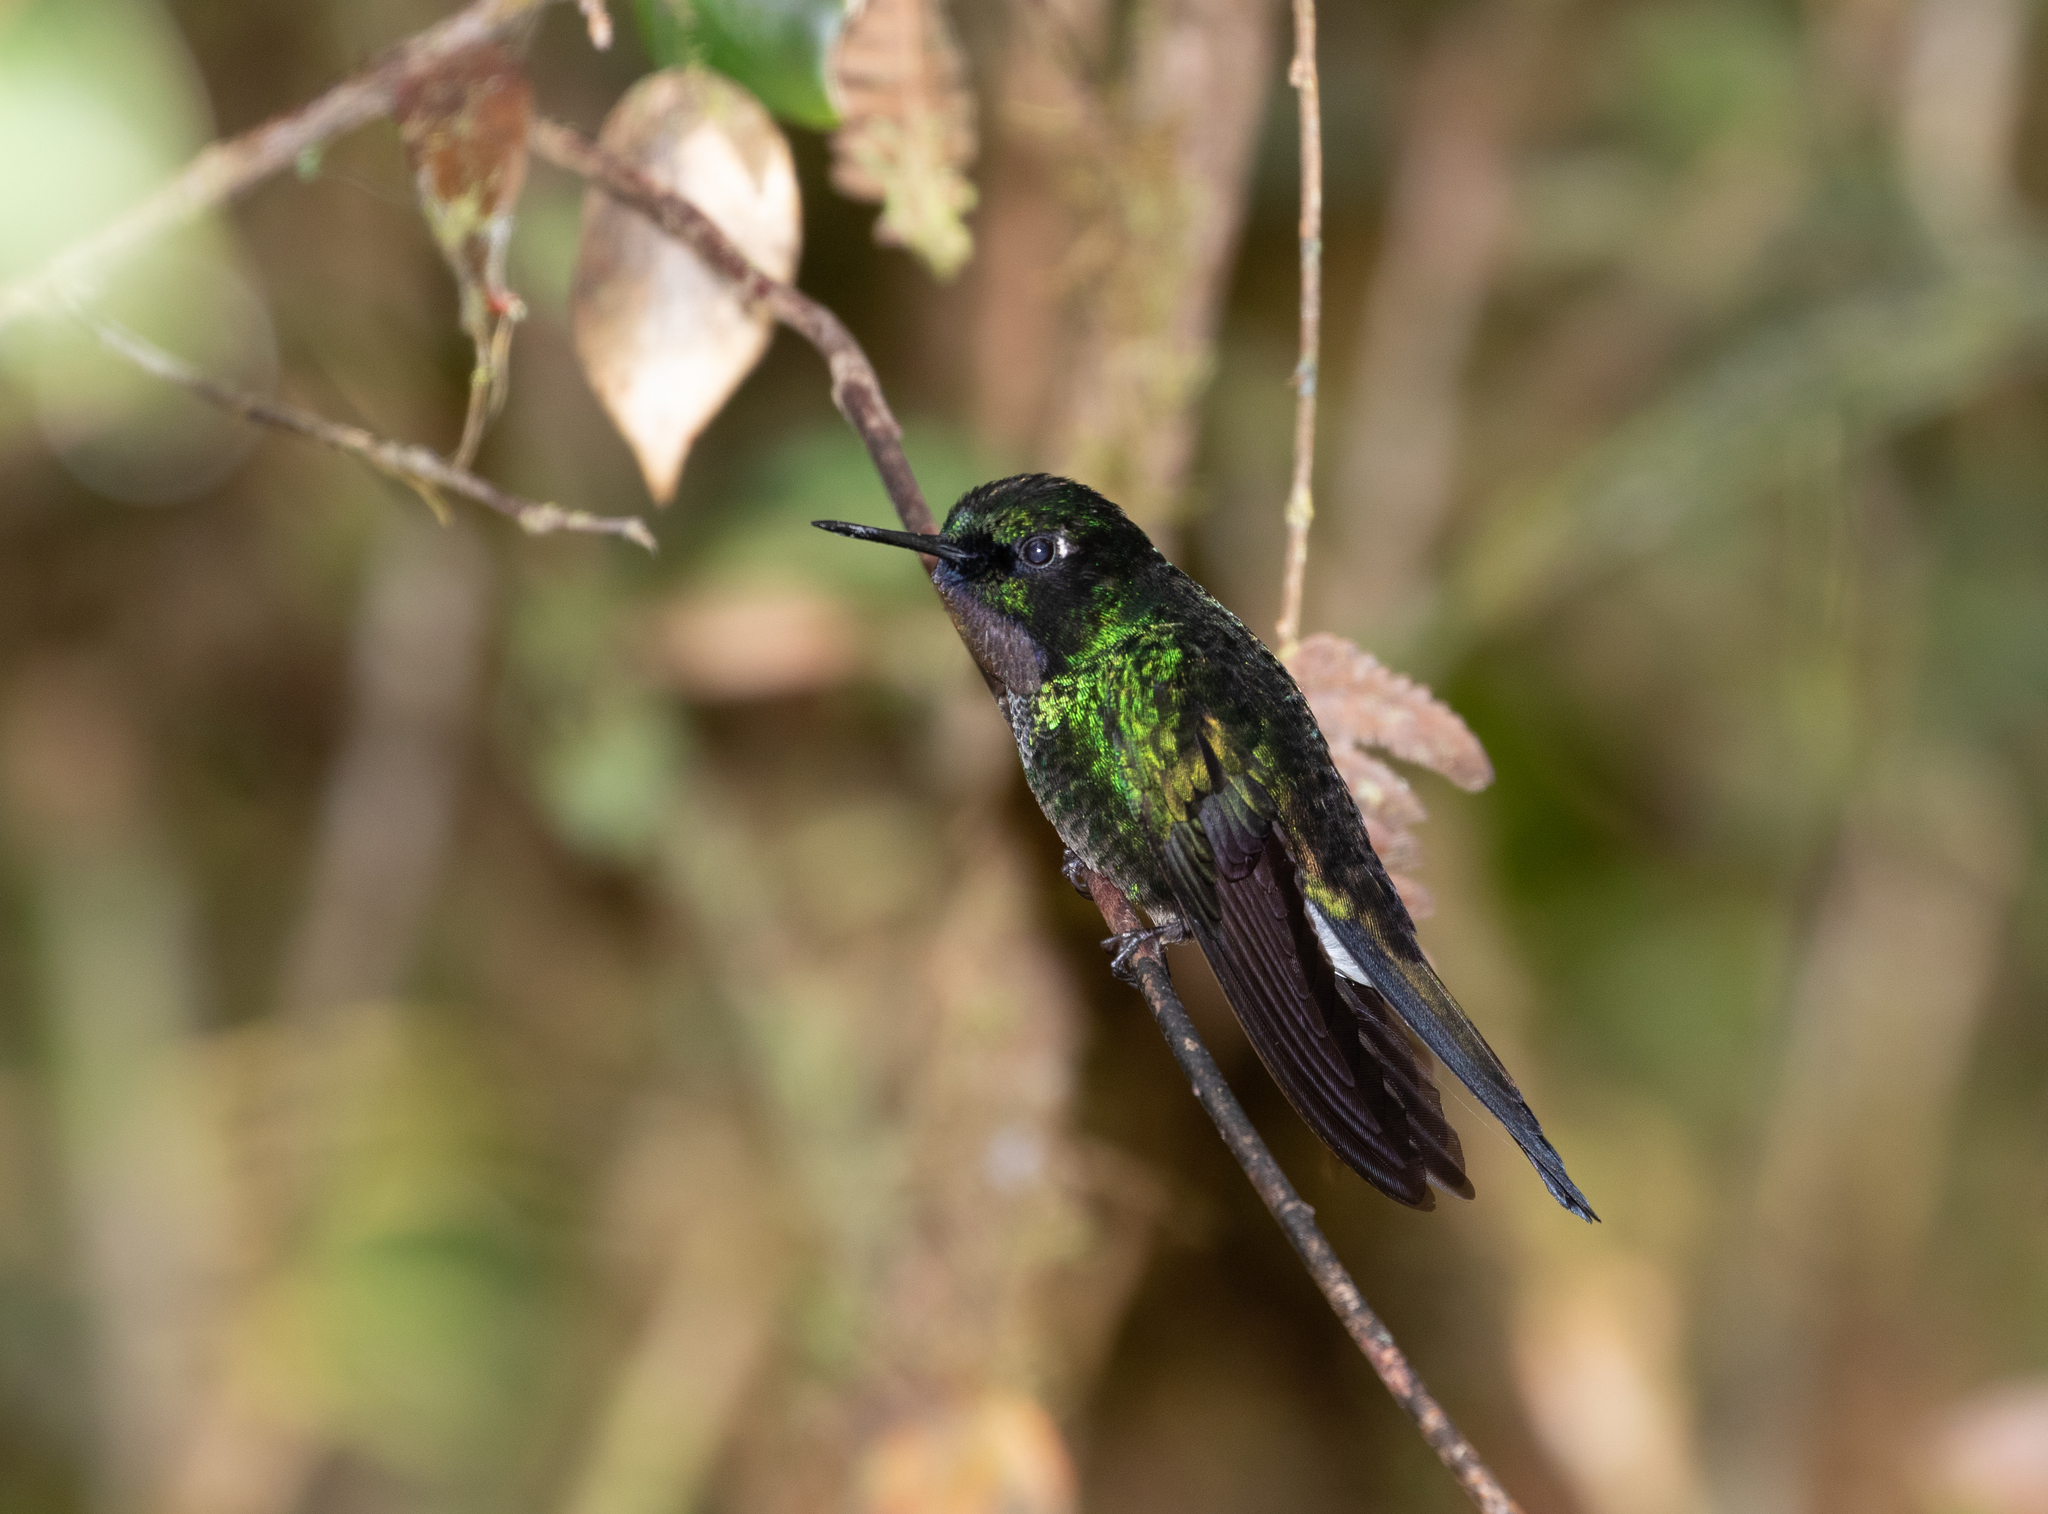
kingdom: Animalia
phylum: Chordata
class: Aves
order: Apodiformes
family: Trochilidae
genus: Heliangelus
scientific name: Heliangelus exortis
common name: Tourmaline sunangel
